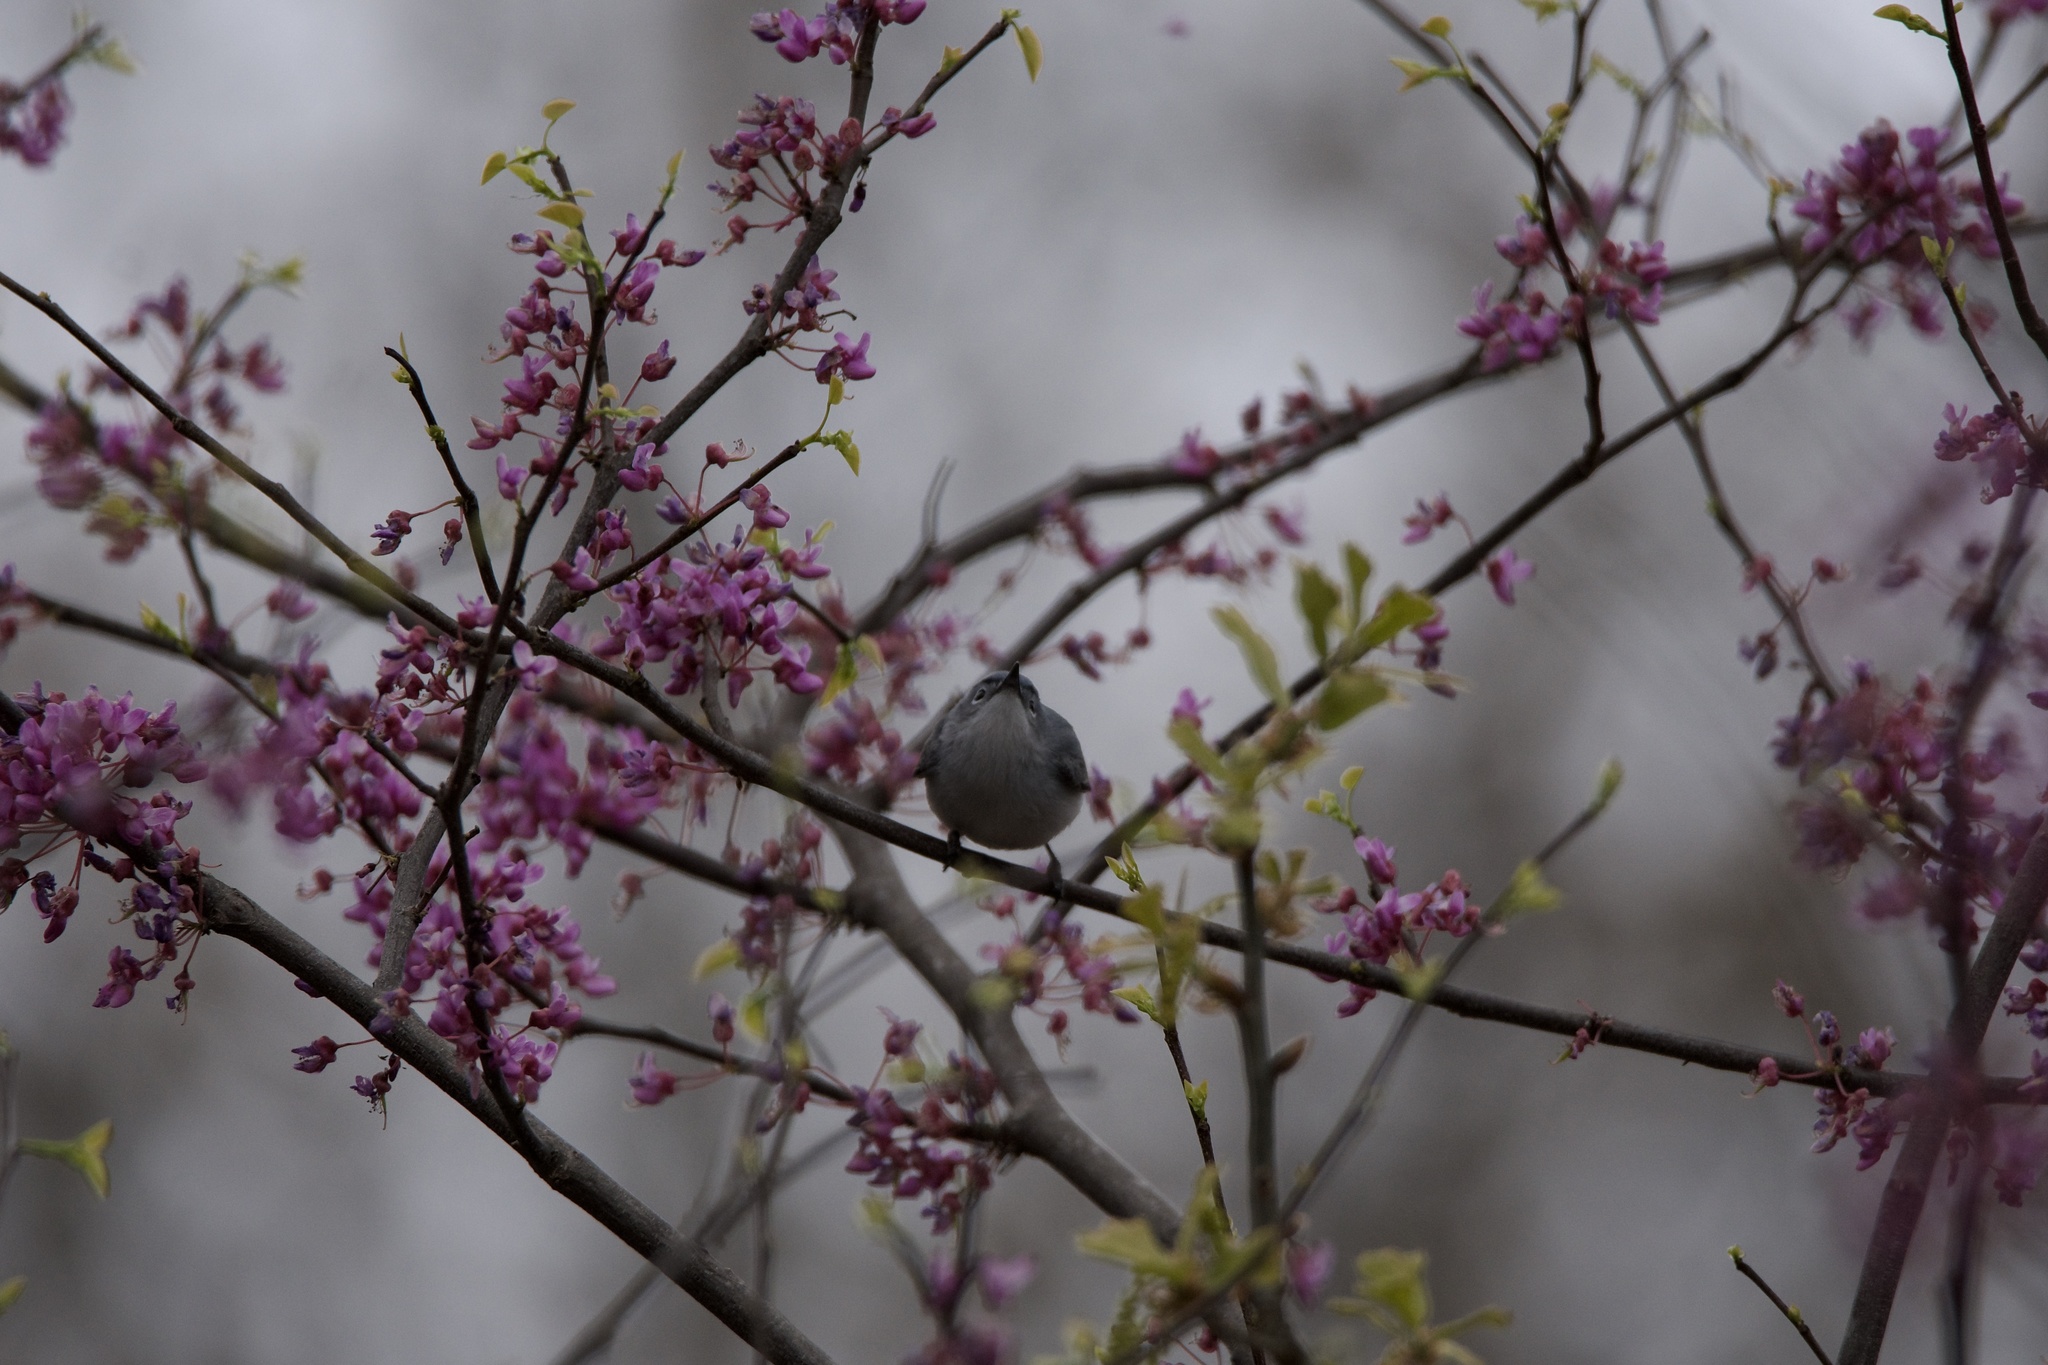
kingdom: Animalia
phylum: Chordata
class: Aves
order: Passeriformes
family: Polioptilidae
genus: Polioptila
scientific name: Polioptila caerulea
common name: Blue-gray gnatcatcher
